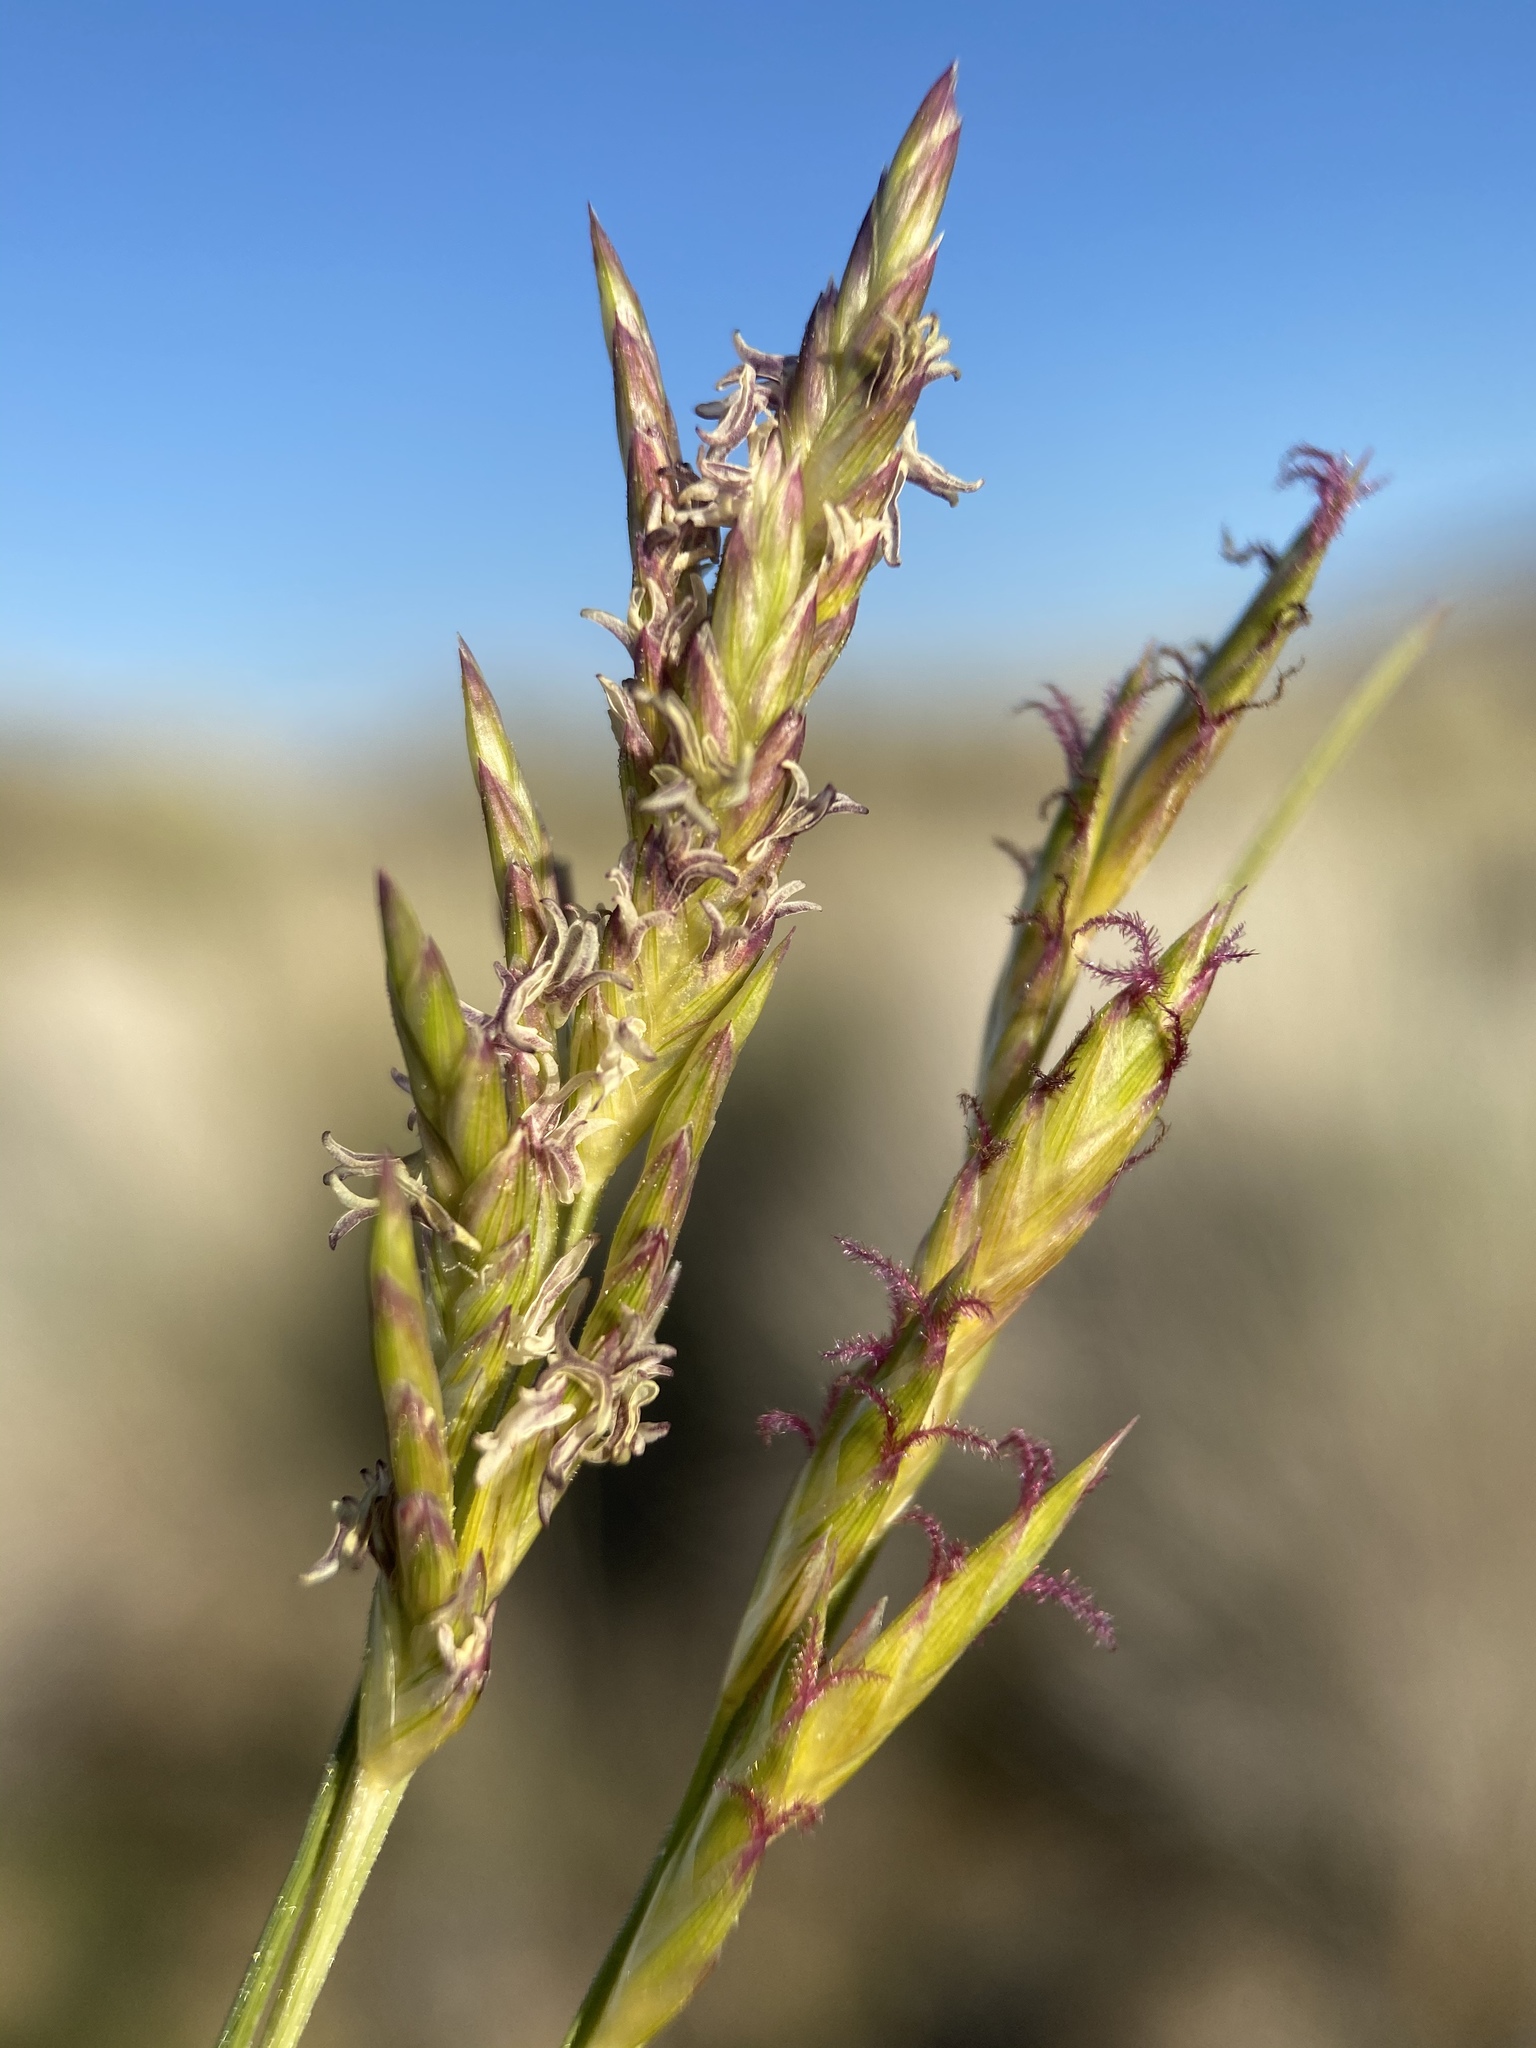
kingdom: Plantae
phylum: Tracheophyta
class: Liliopsida
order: Poales
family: Poaceae
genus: Distichlis
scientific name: Distichlis spicata
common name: Saltgrass
